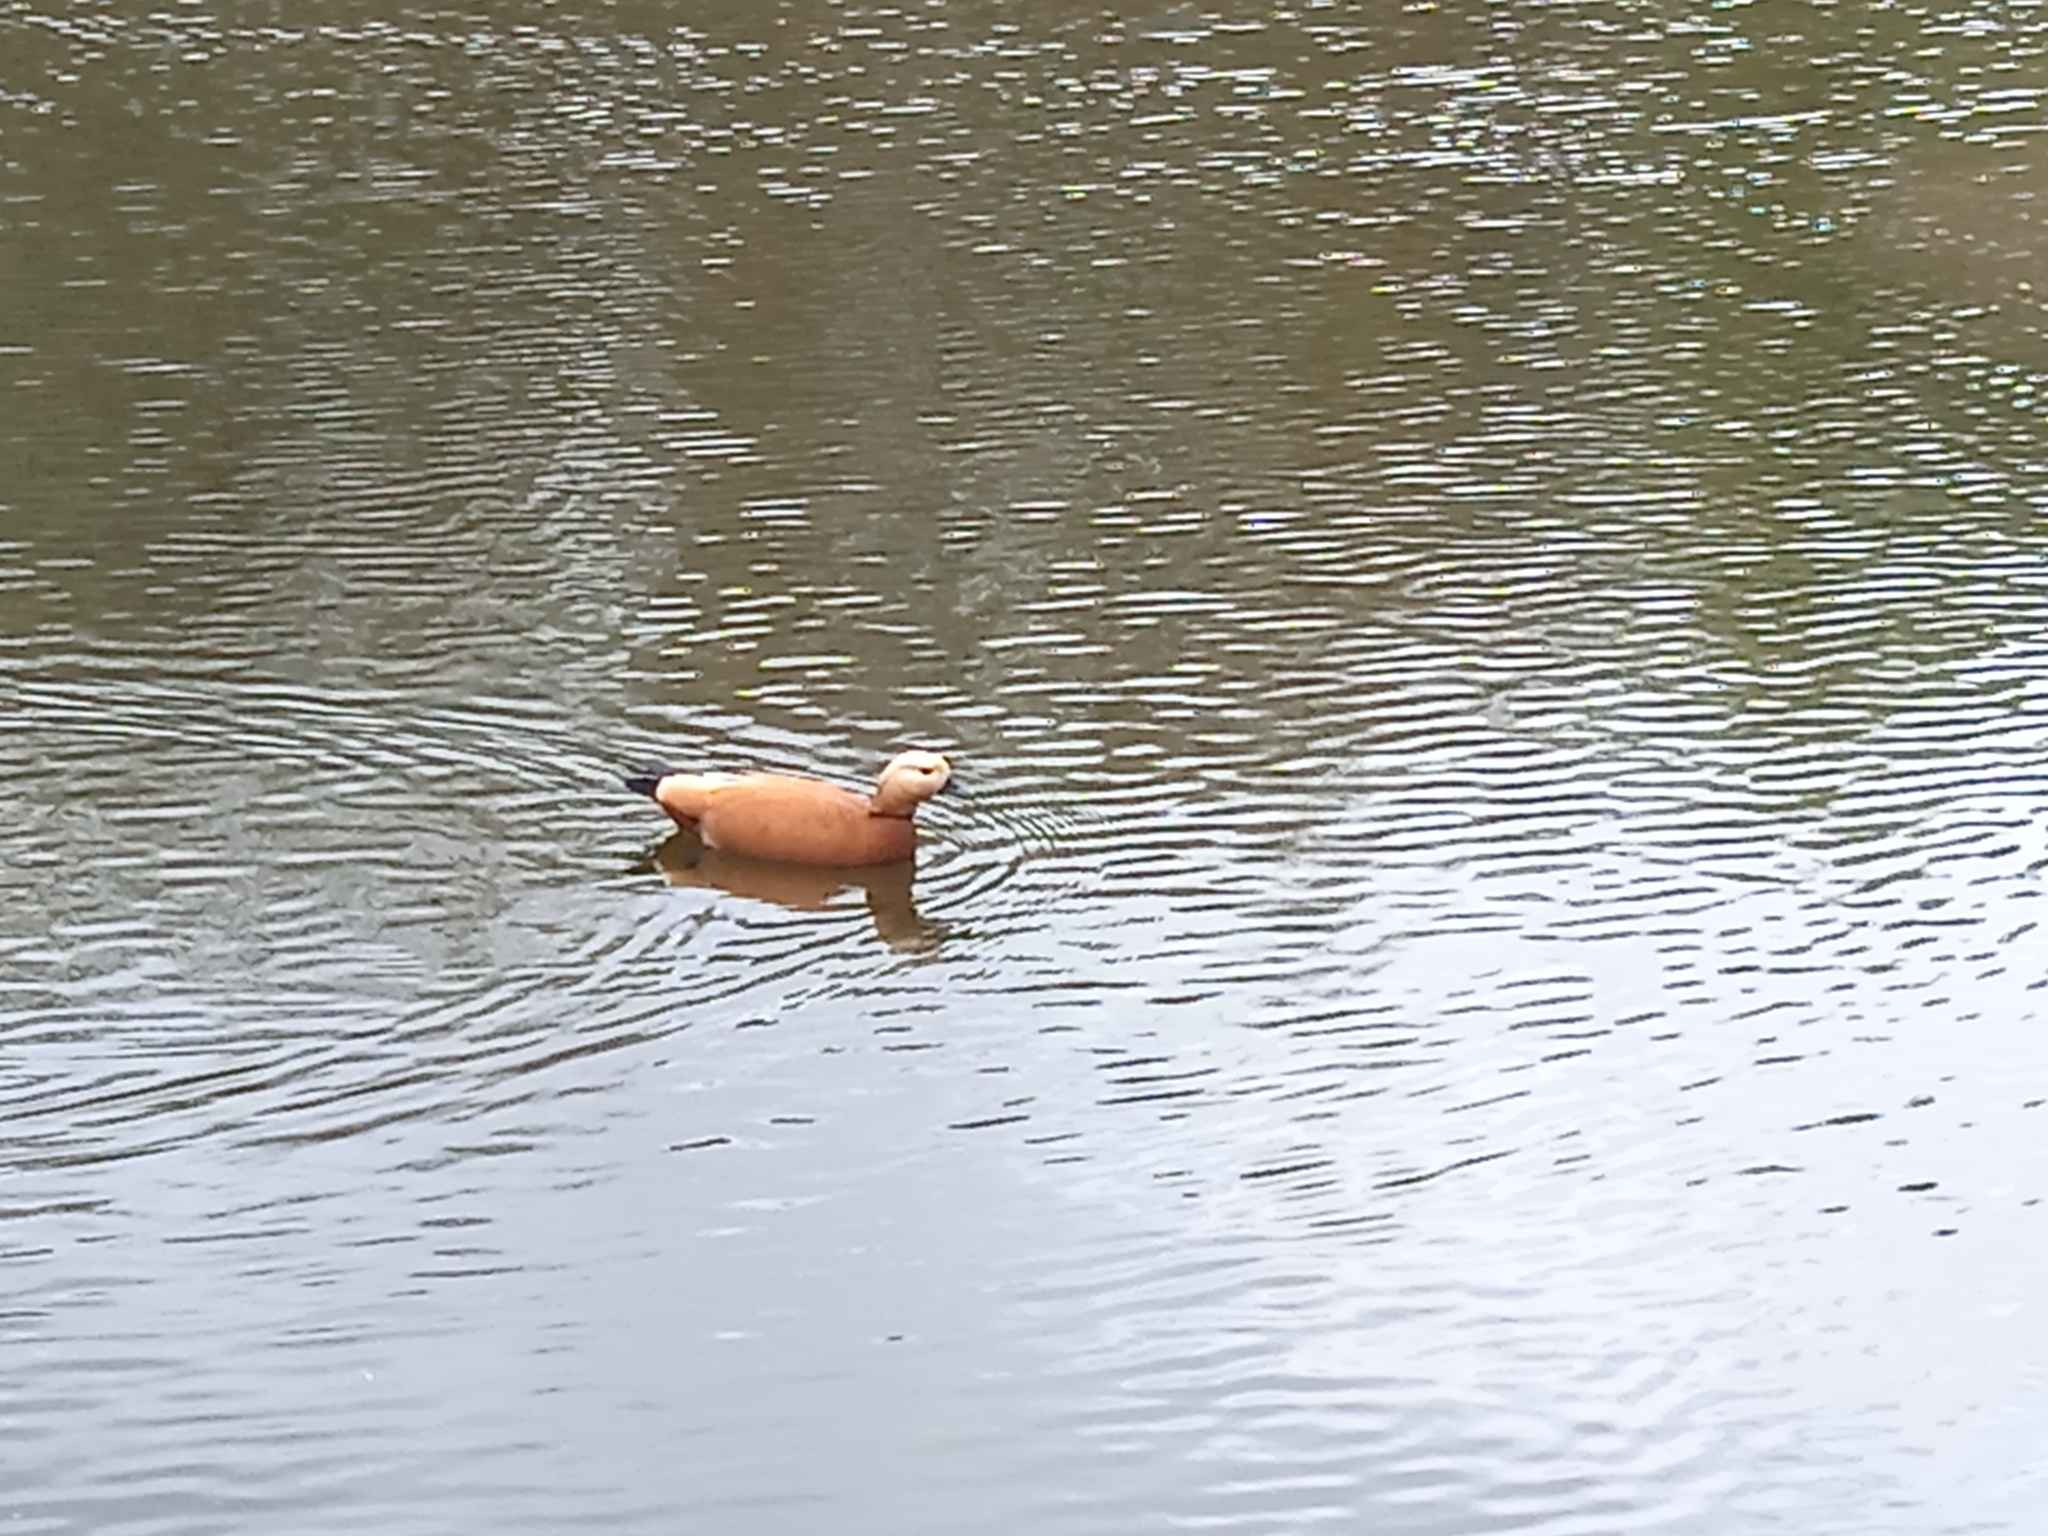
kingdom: Animalia
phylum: Chordata
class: Aves
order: Anseriformes
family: Anatidae
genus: Tadorna
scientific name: Tadorna ferruginea
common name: Ruddy shelduck
